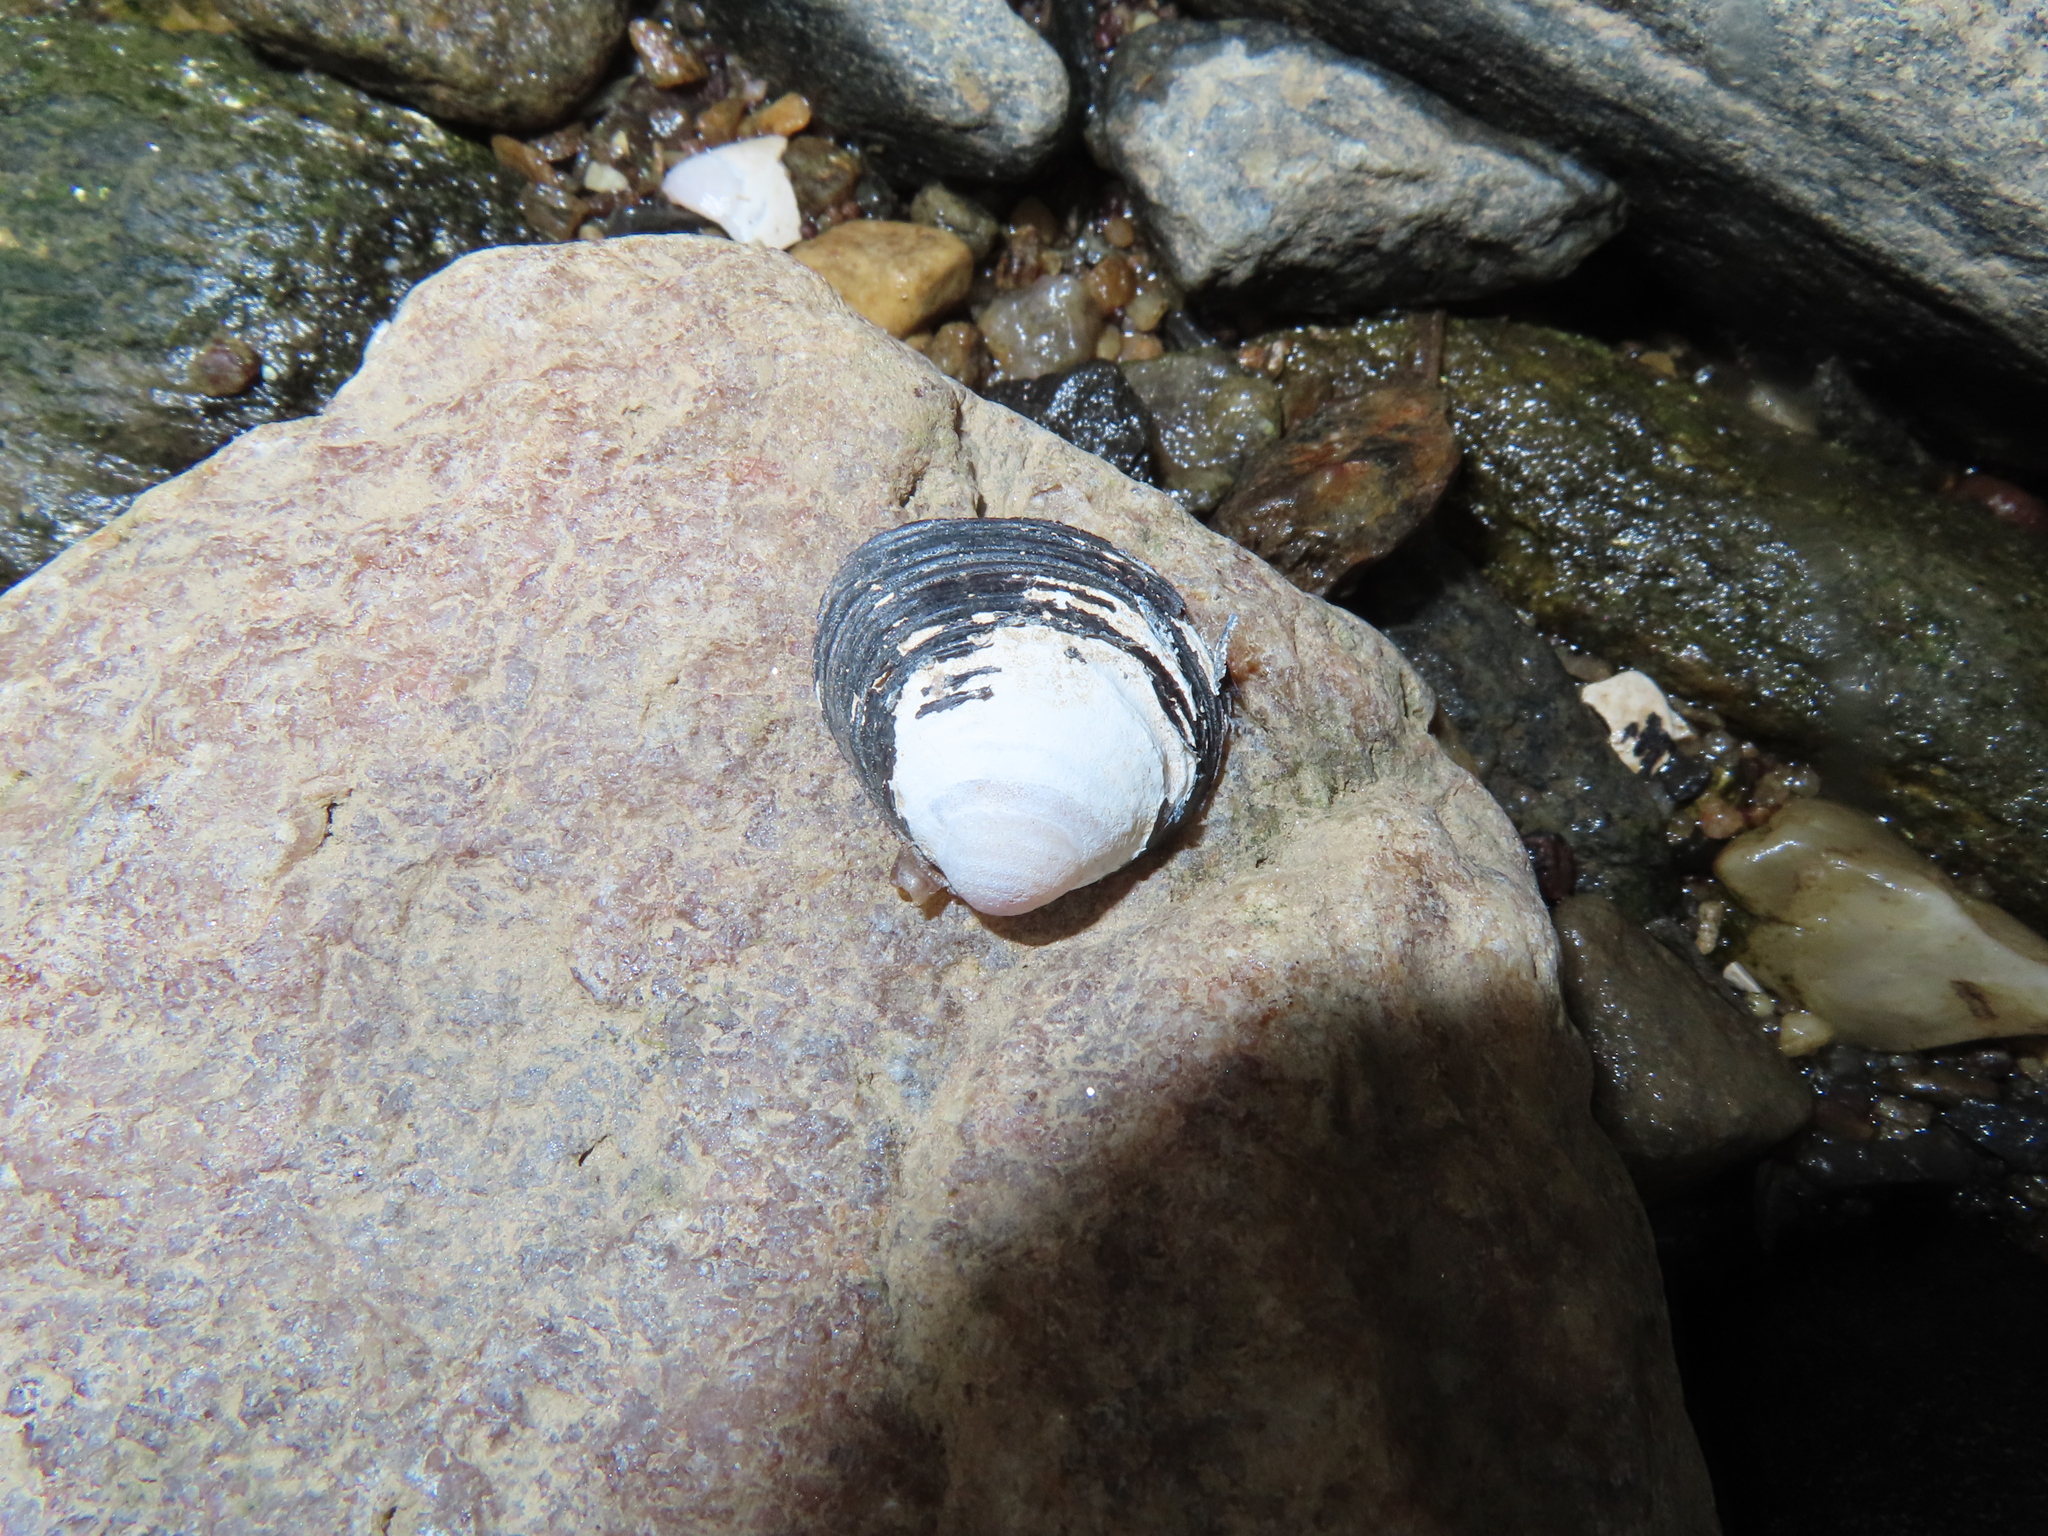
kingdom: Animalia
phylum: Mollusca
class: Bivalvia
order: Venerida
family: Cyrenidae
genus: Corbicula
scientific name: Corbicula fluminea
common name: Asian clam
